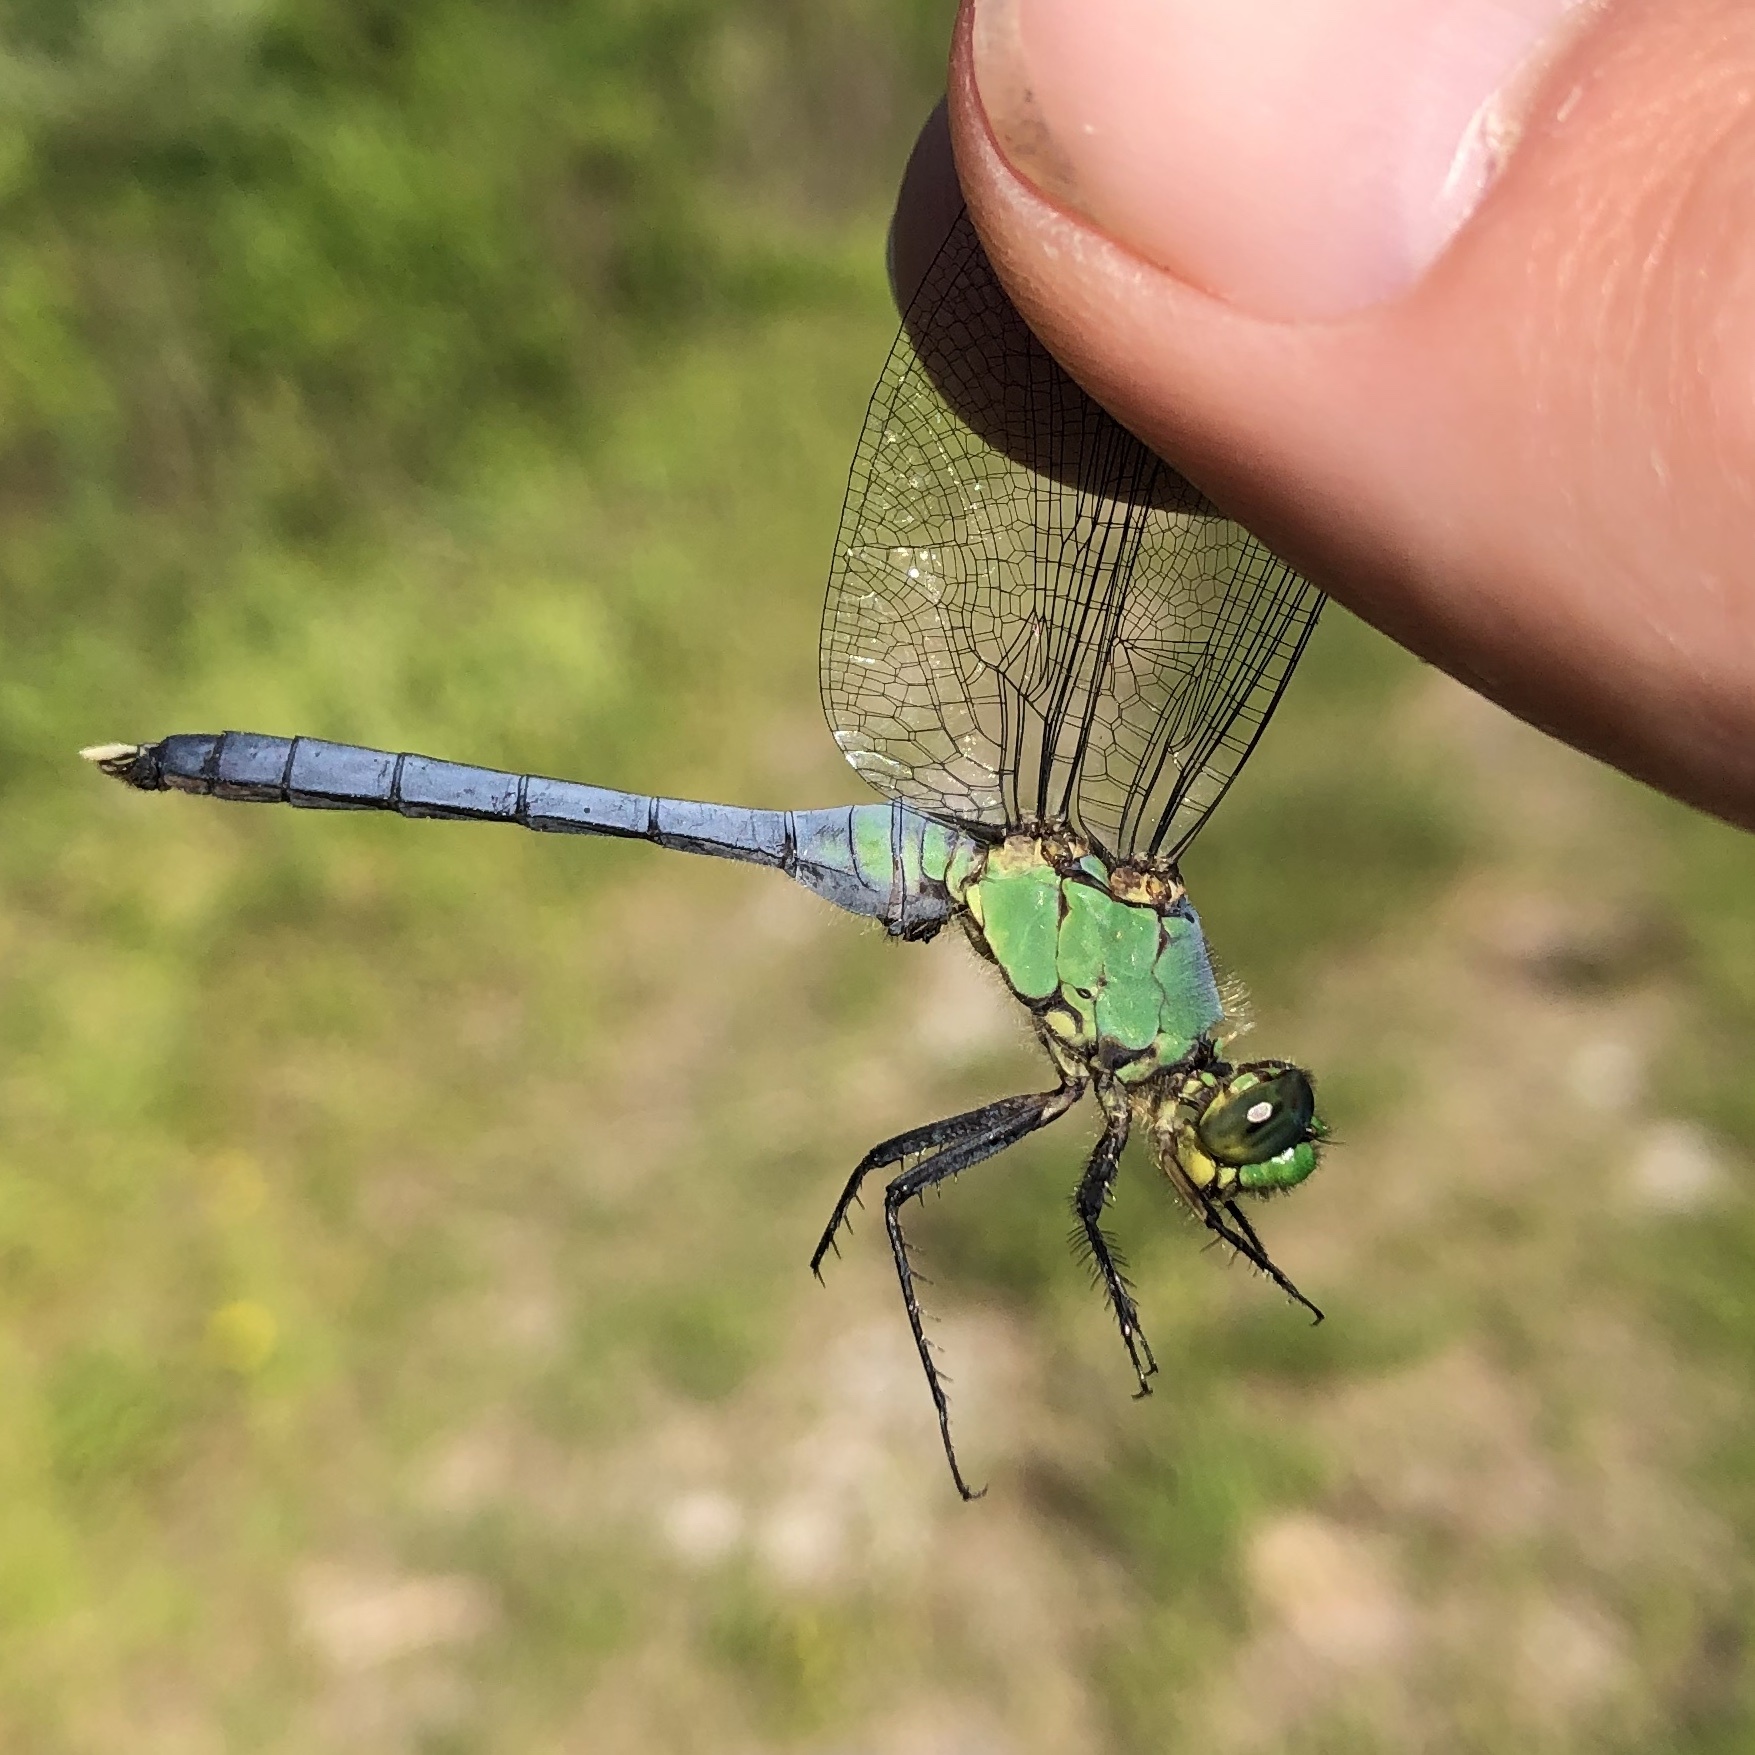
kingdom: Animalia
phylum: Arthropoda
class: Insecta
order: Odonata
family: Libellulidae
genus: Erythemis
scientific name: Erythemis simplicicollis
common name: Eastern pondhawk
